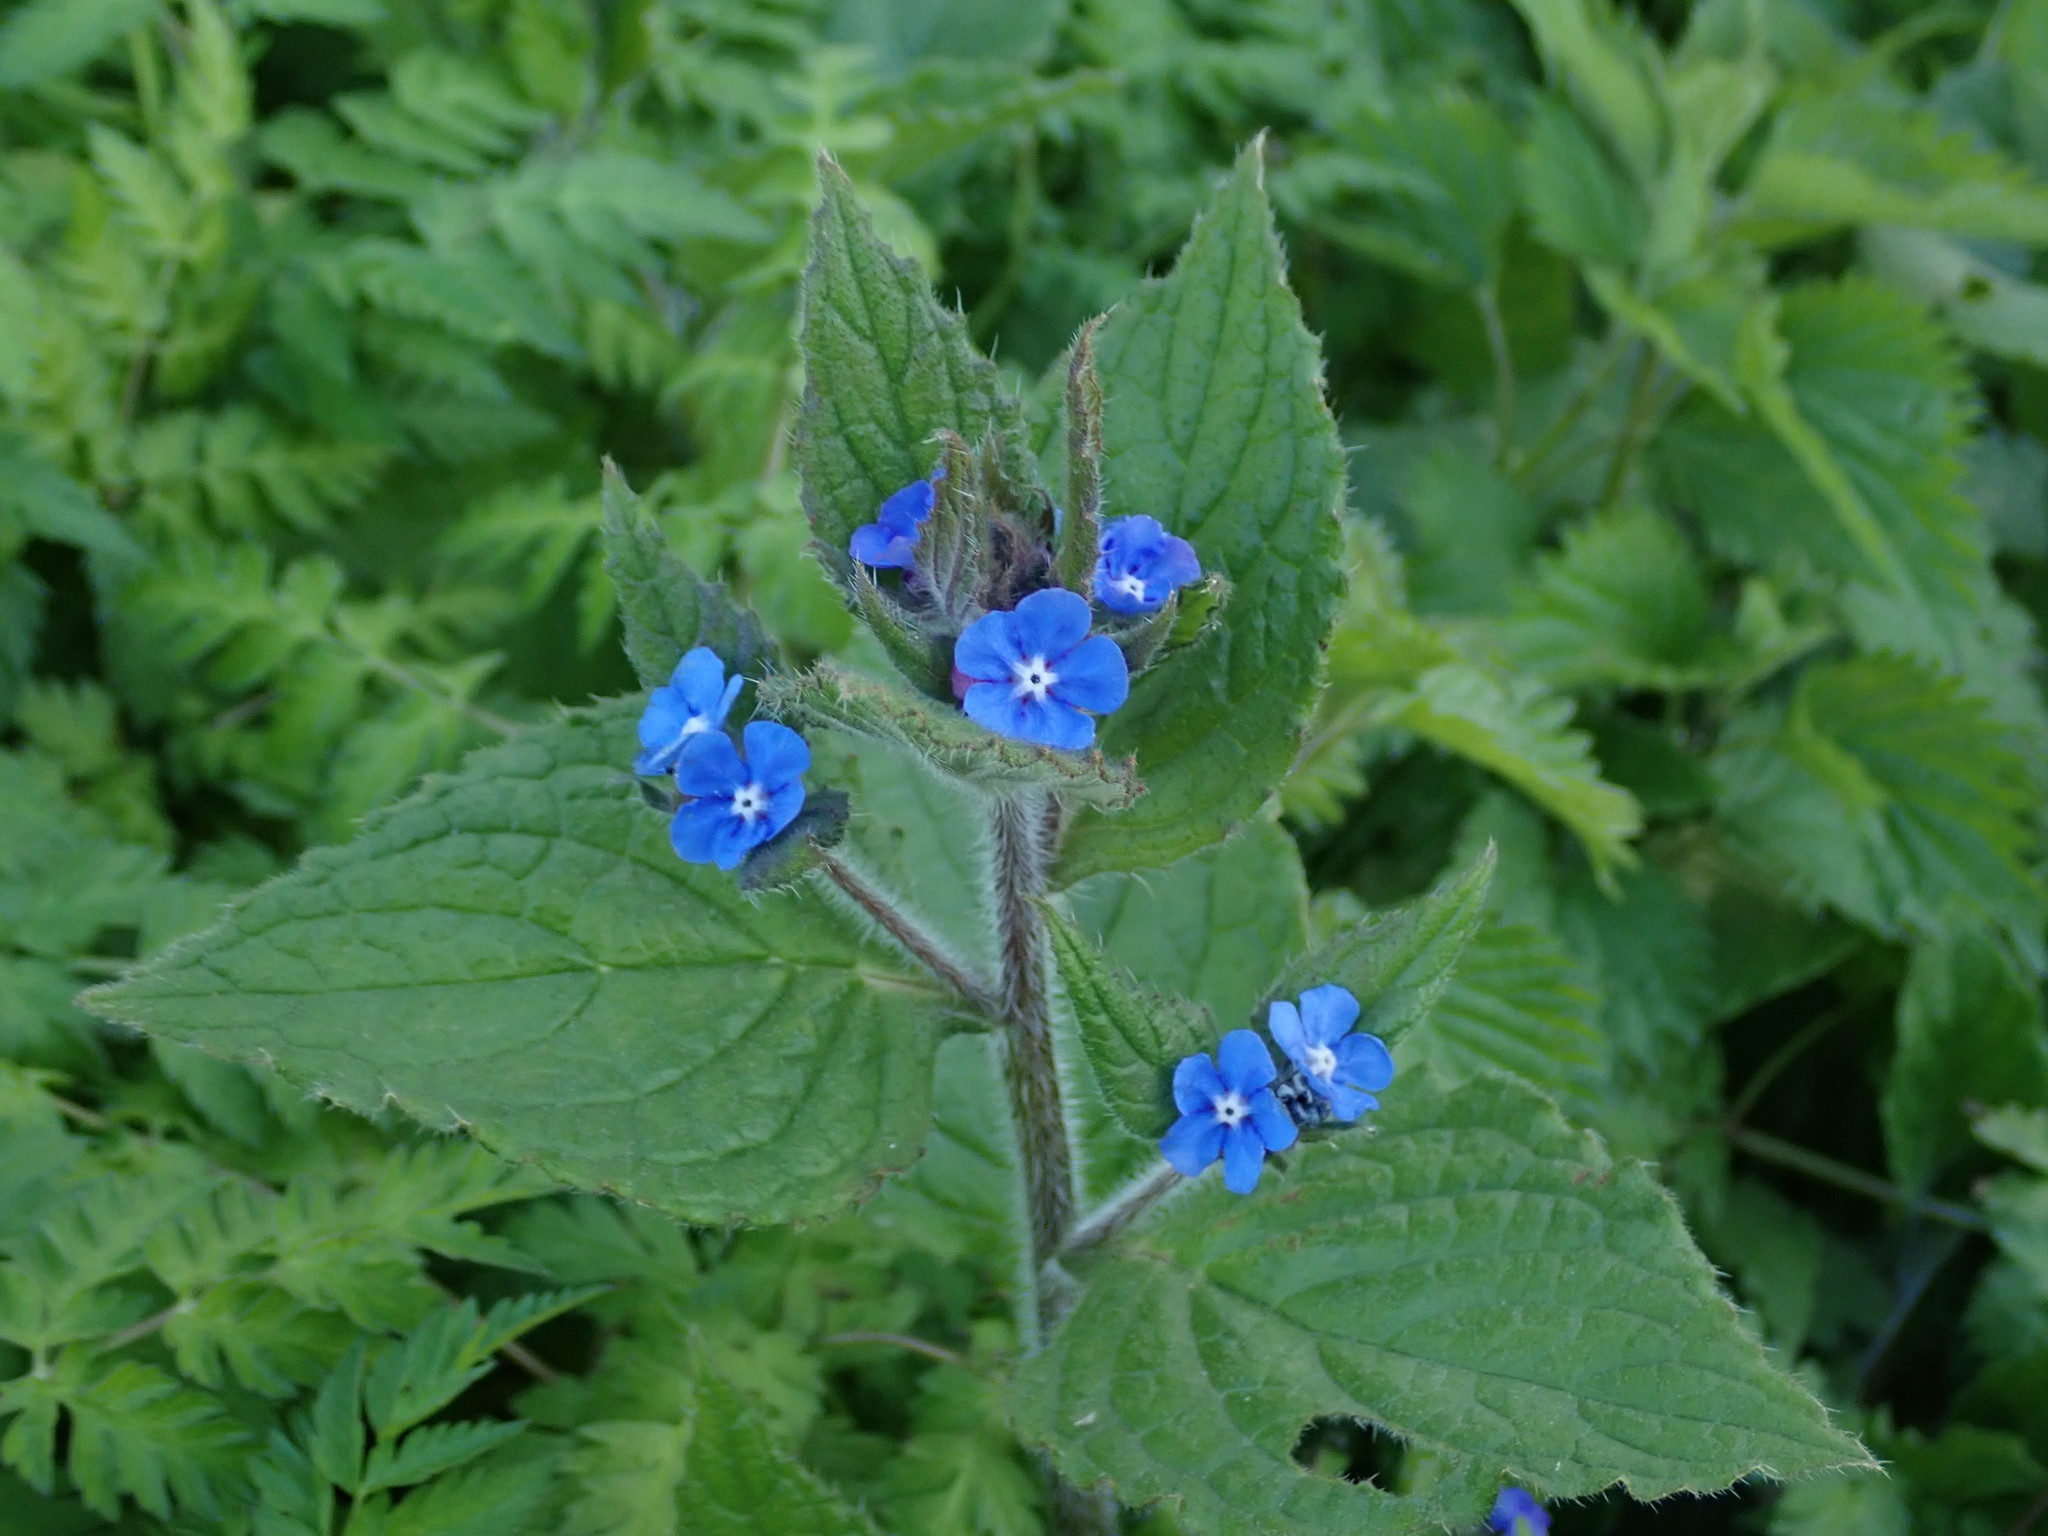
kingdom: Plantae
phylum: Tracheophyta
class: Magnoliopsida
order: Boraginales
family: Boraginaceae
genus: Pentaglottis
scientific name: Pentaglottis sempervirens
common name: Green alkanet
